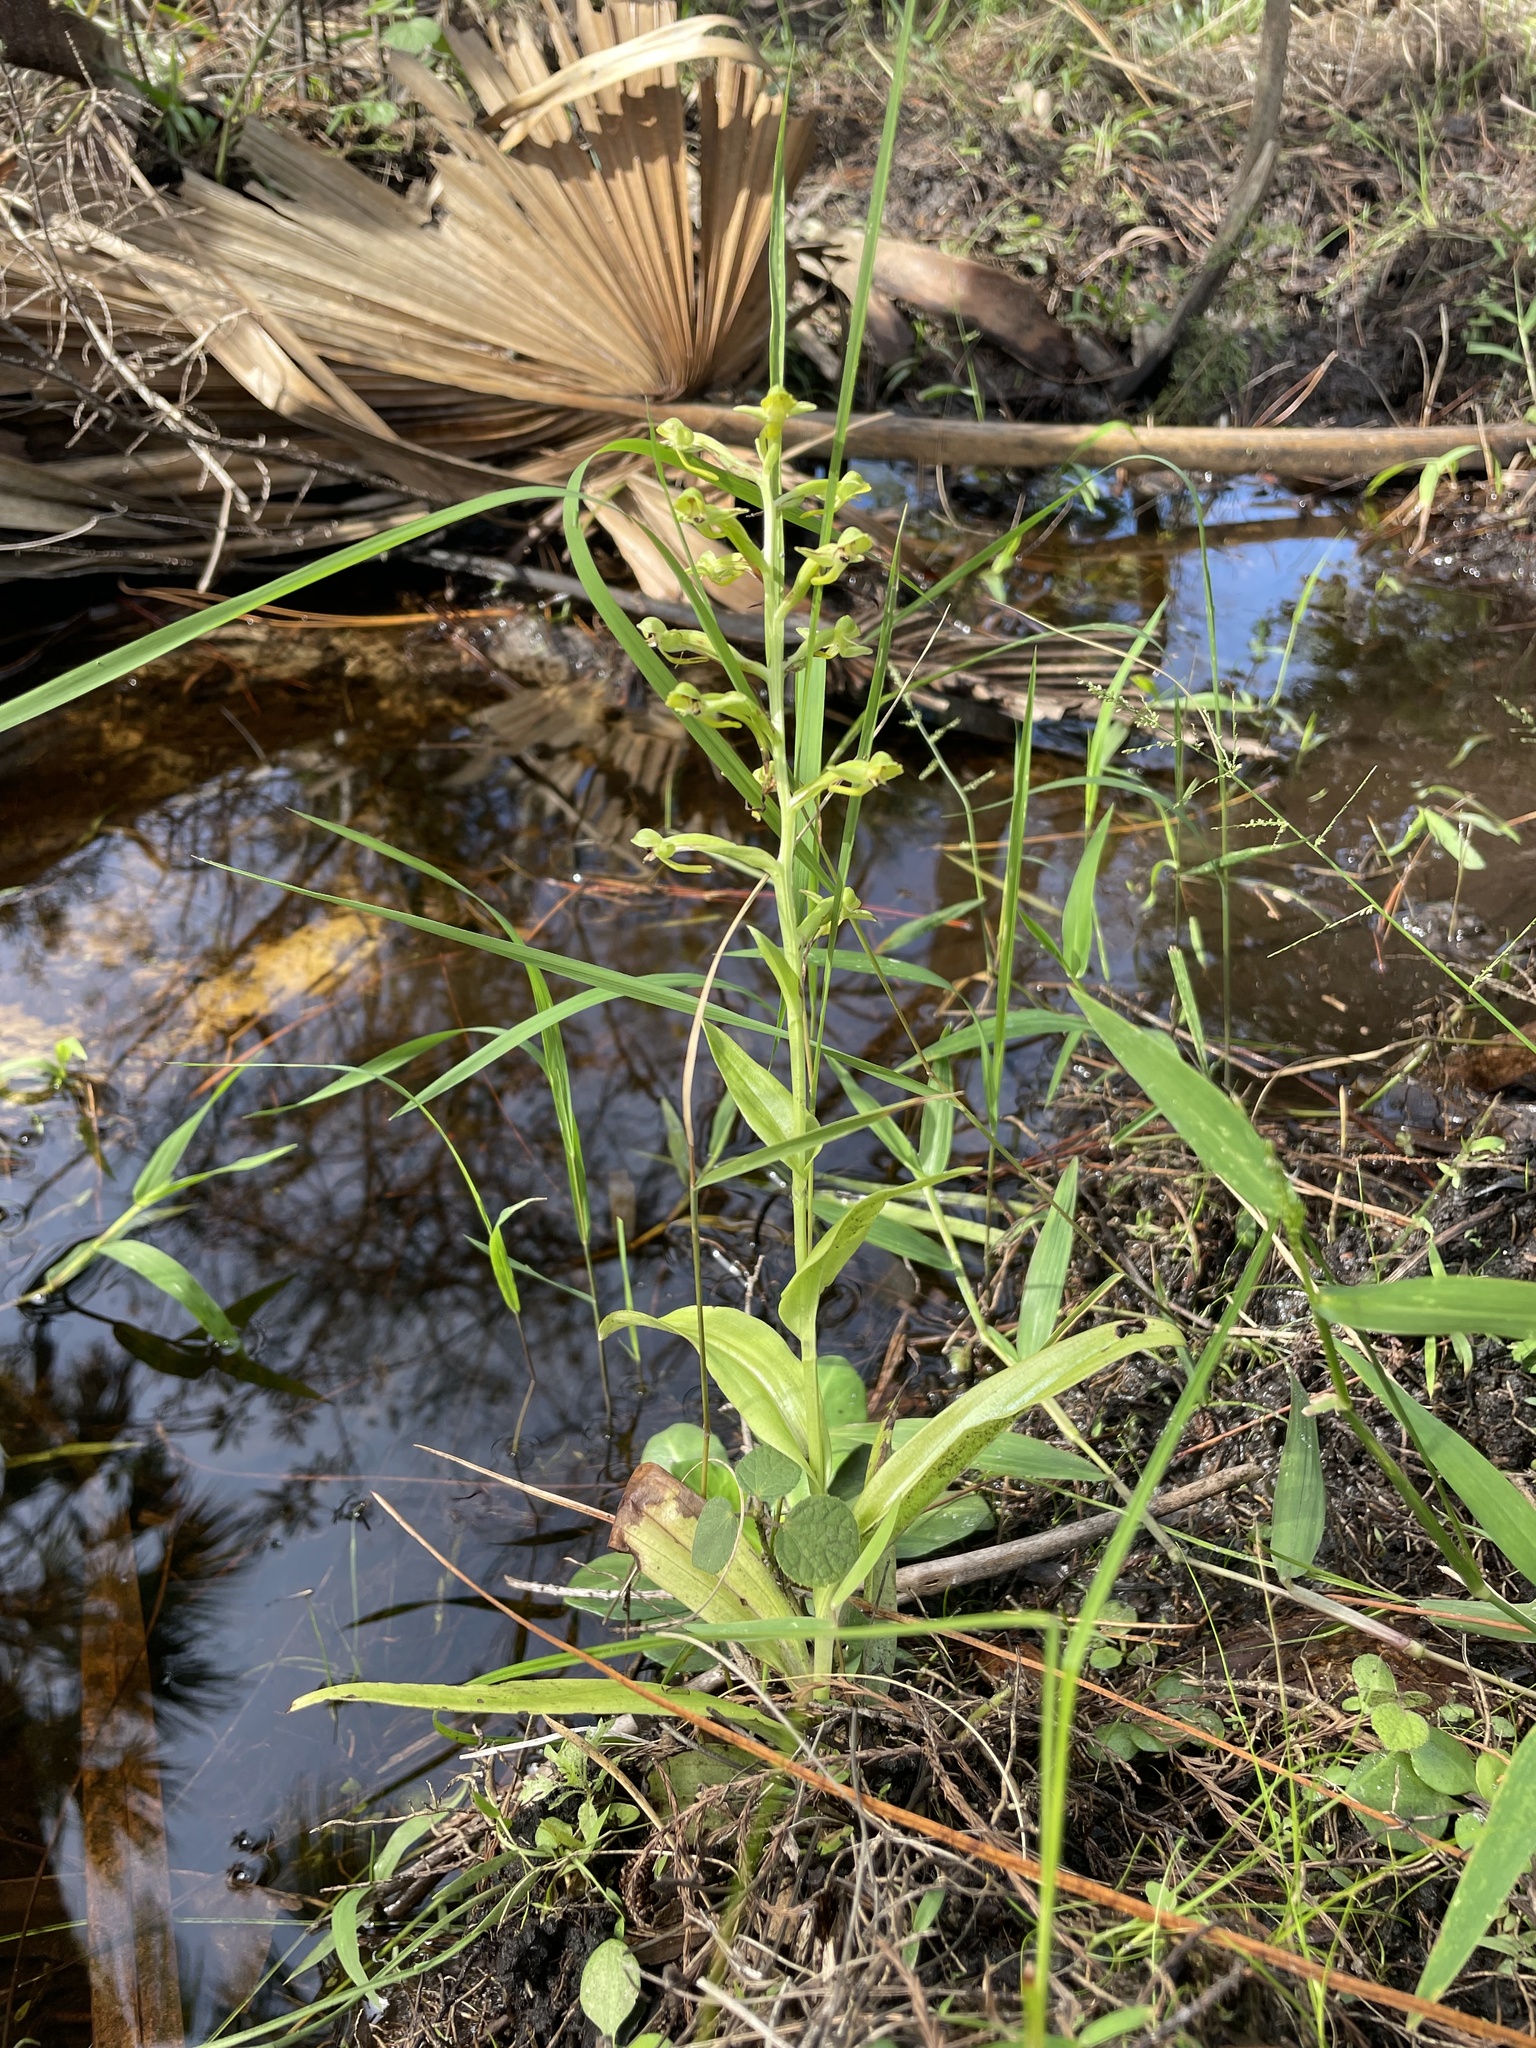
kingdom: Plantae
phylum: Tracheophyta
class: Liliopsida
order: Asparagales
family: Orchidaceae
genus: Habenaria
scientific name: Habenaria floribunda
